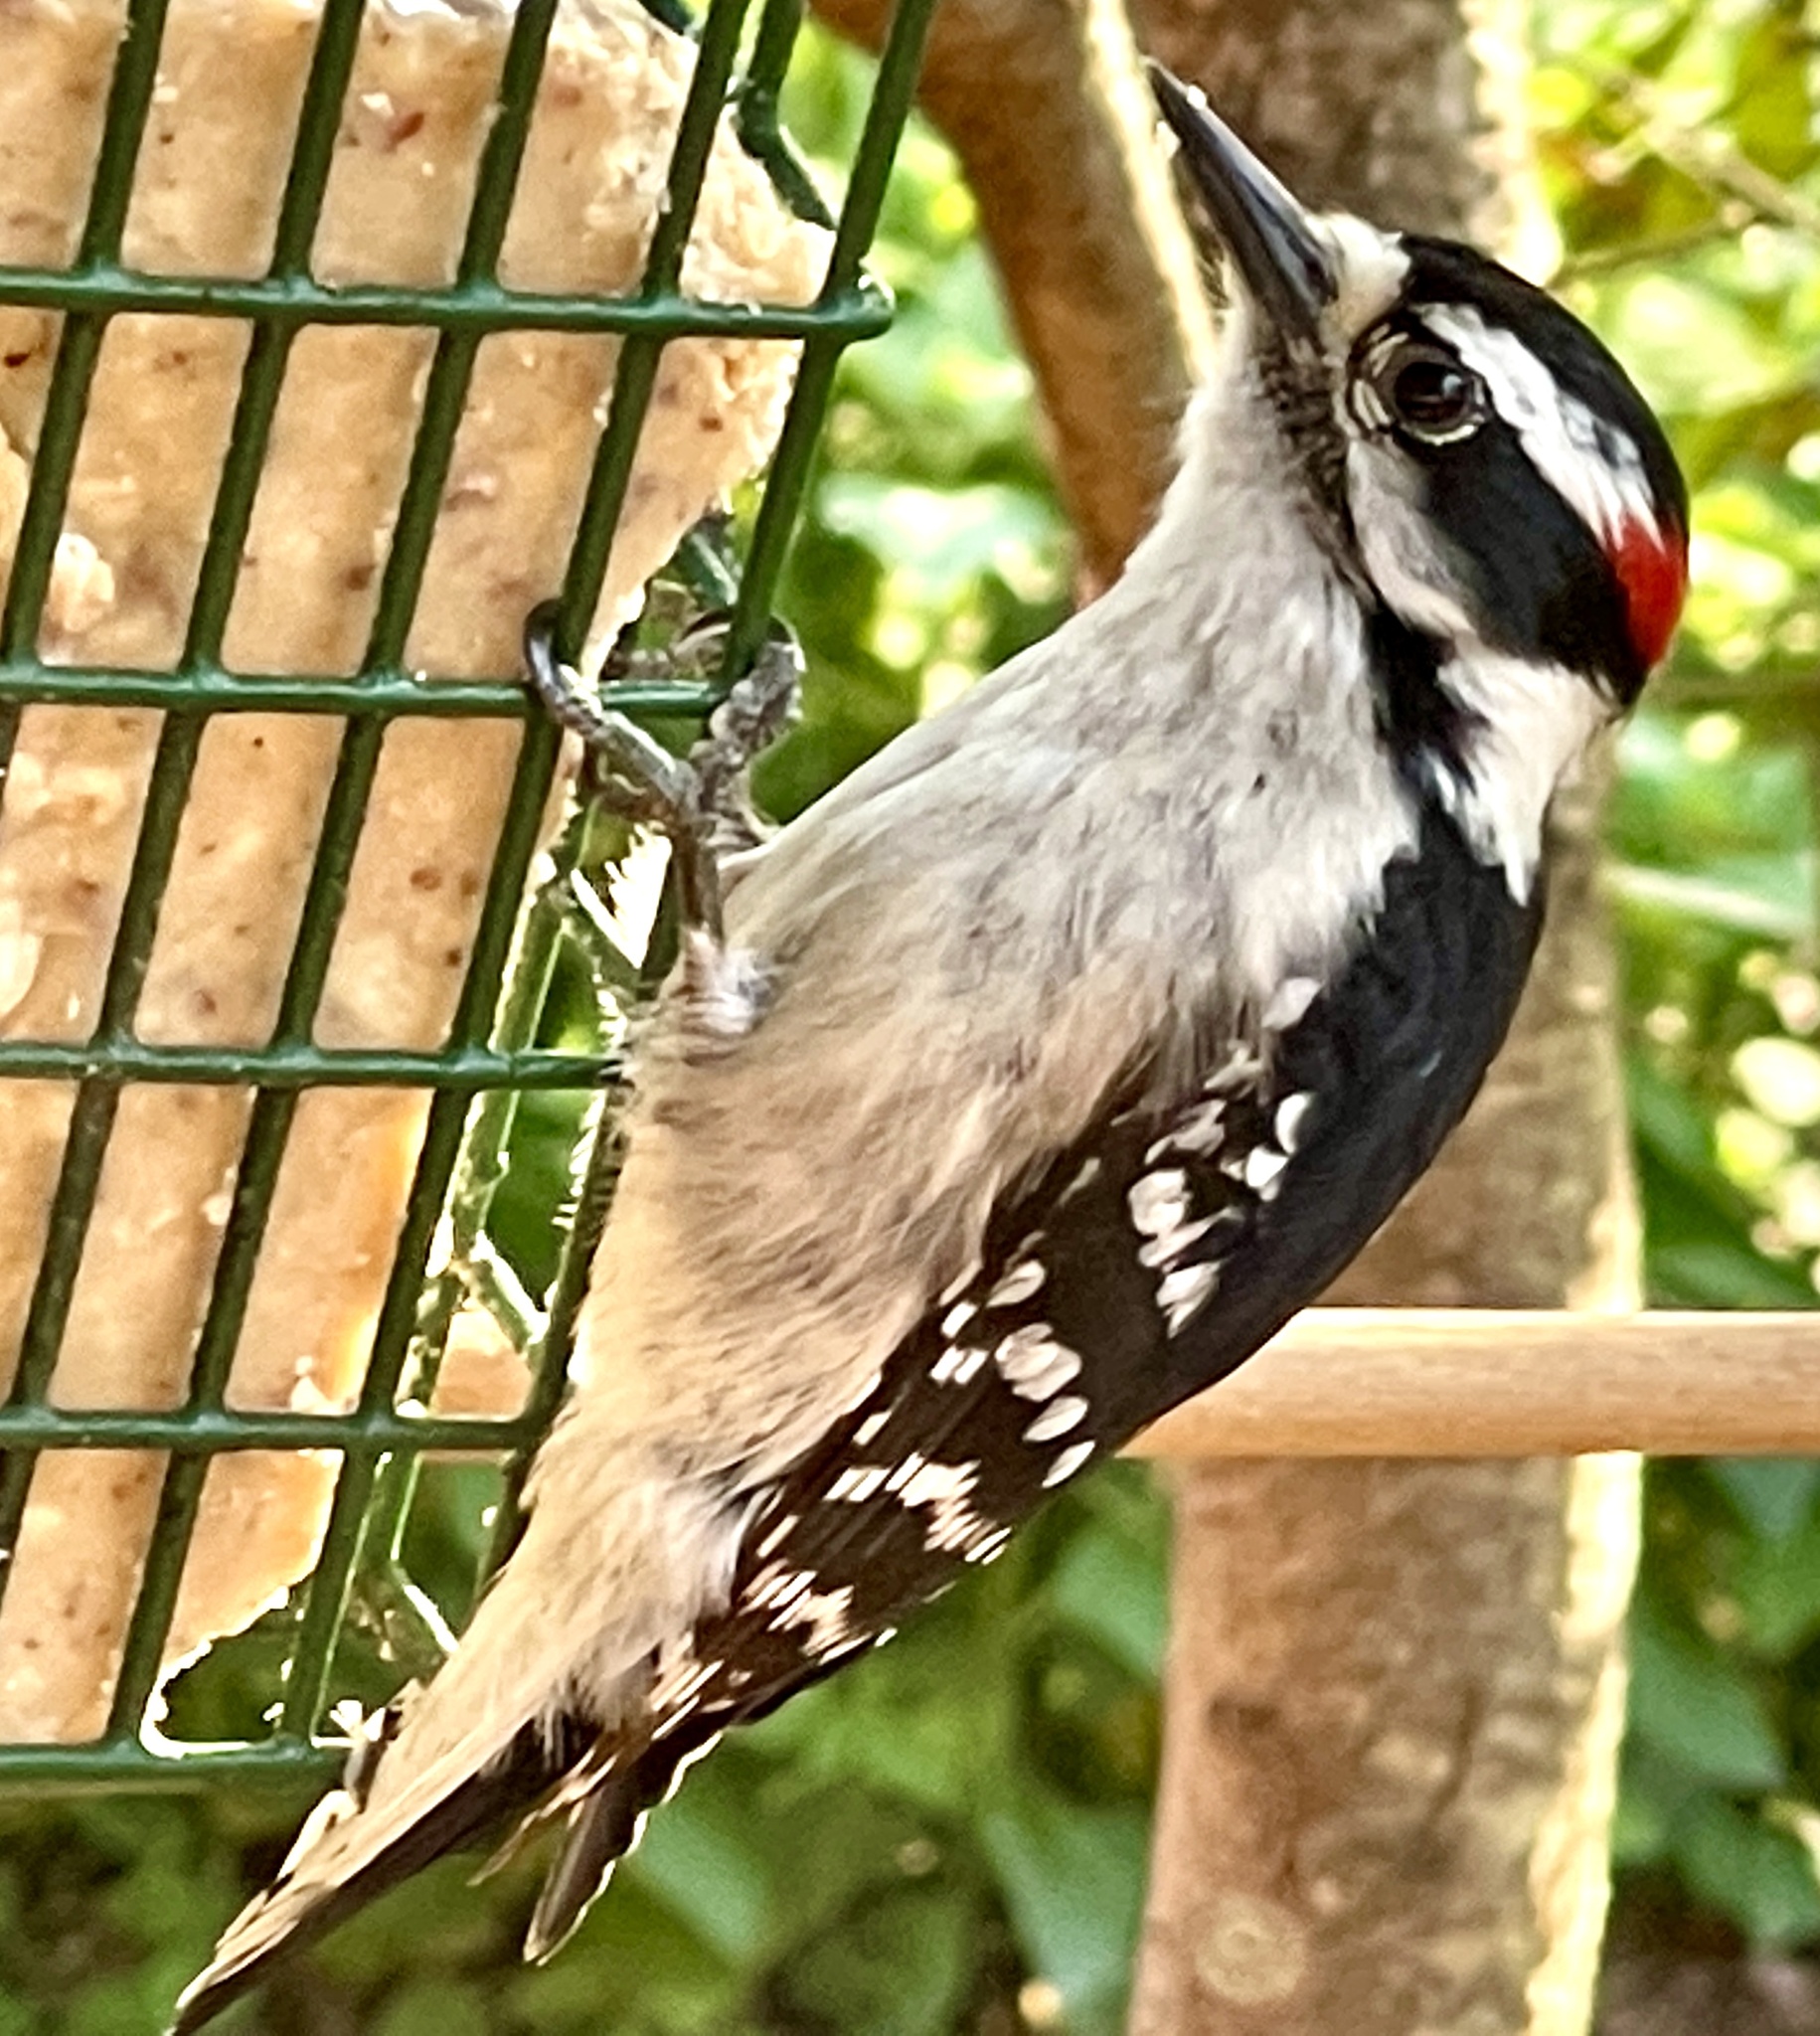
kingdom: Animalia
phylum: Chordata
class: Aves
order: Piciformes
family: Picidae
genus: Dryobates
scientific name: Dryobates pubescens
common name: Downy woodpecker
